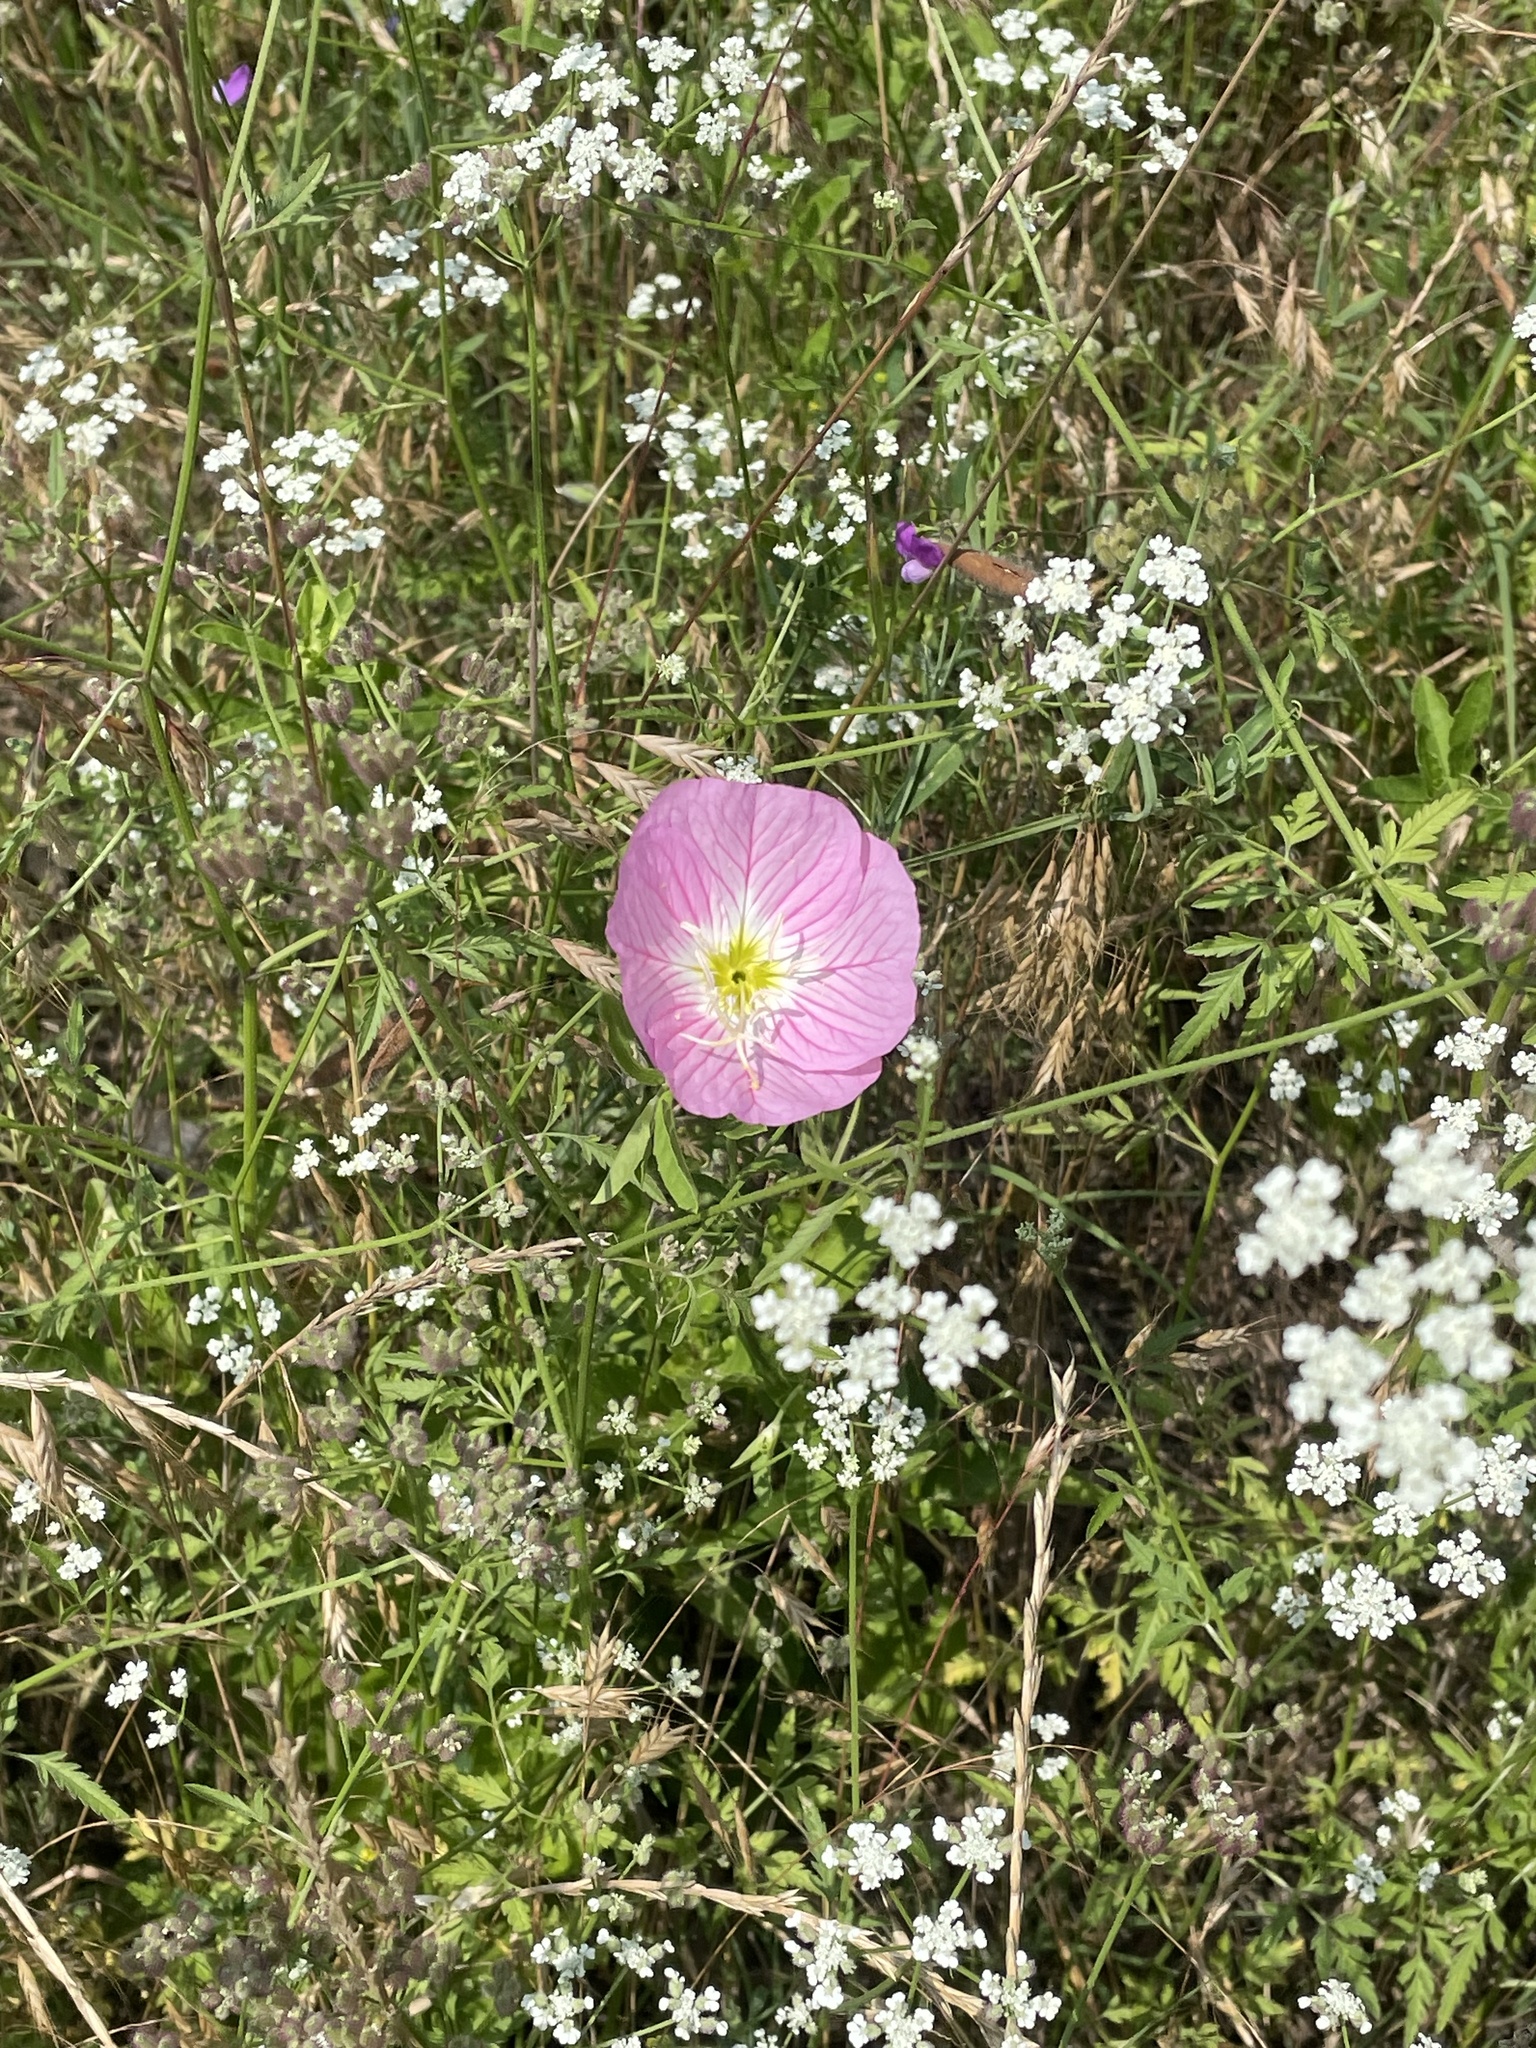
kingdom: Plantae
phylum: Tracheophyta
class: Magnoliopsida
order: Myrtales
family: Onagraceae
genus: Oenothera
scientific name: Oenothera speciosa
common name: White evening-primrose
